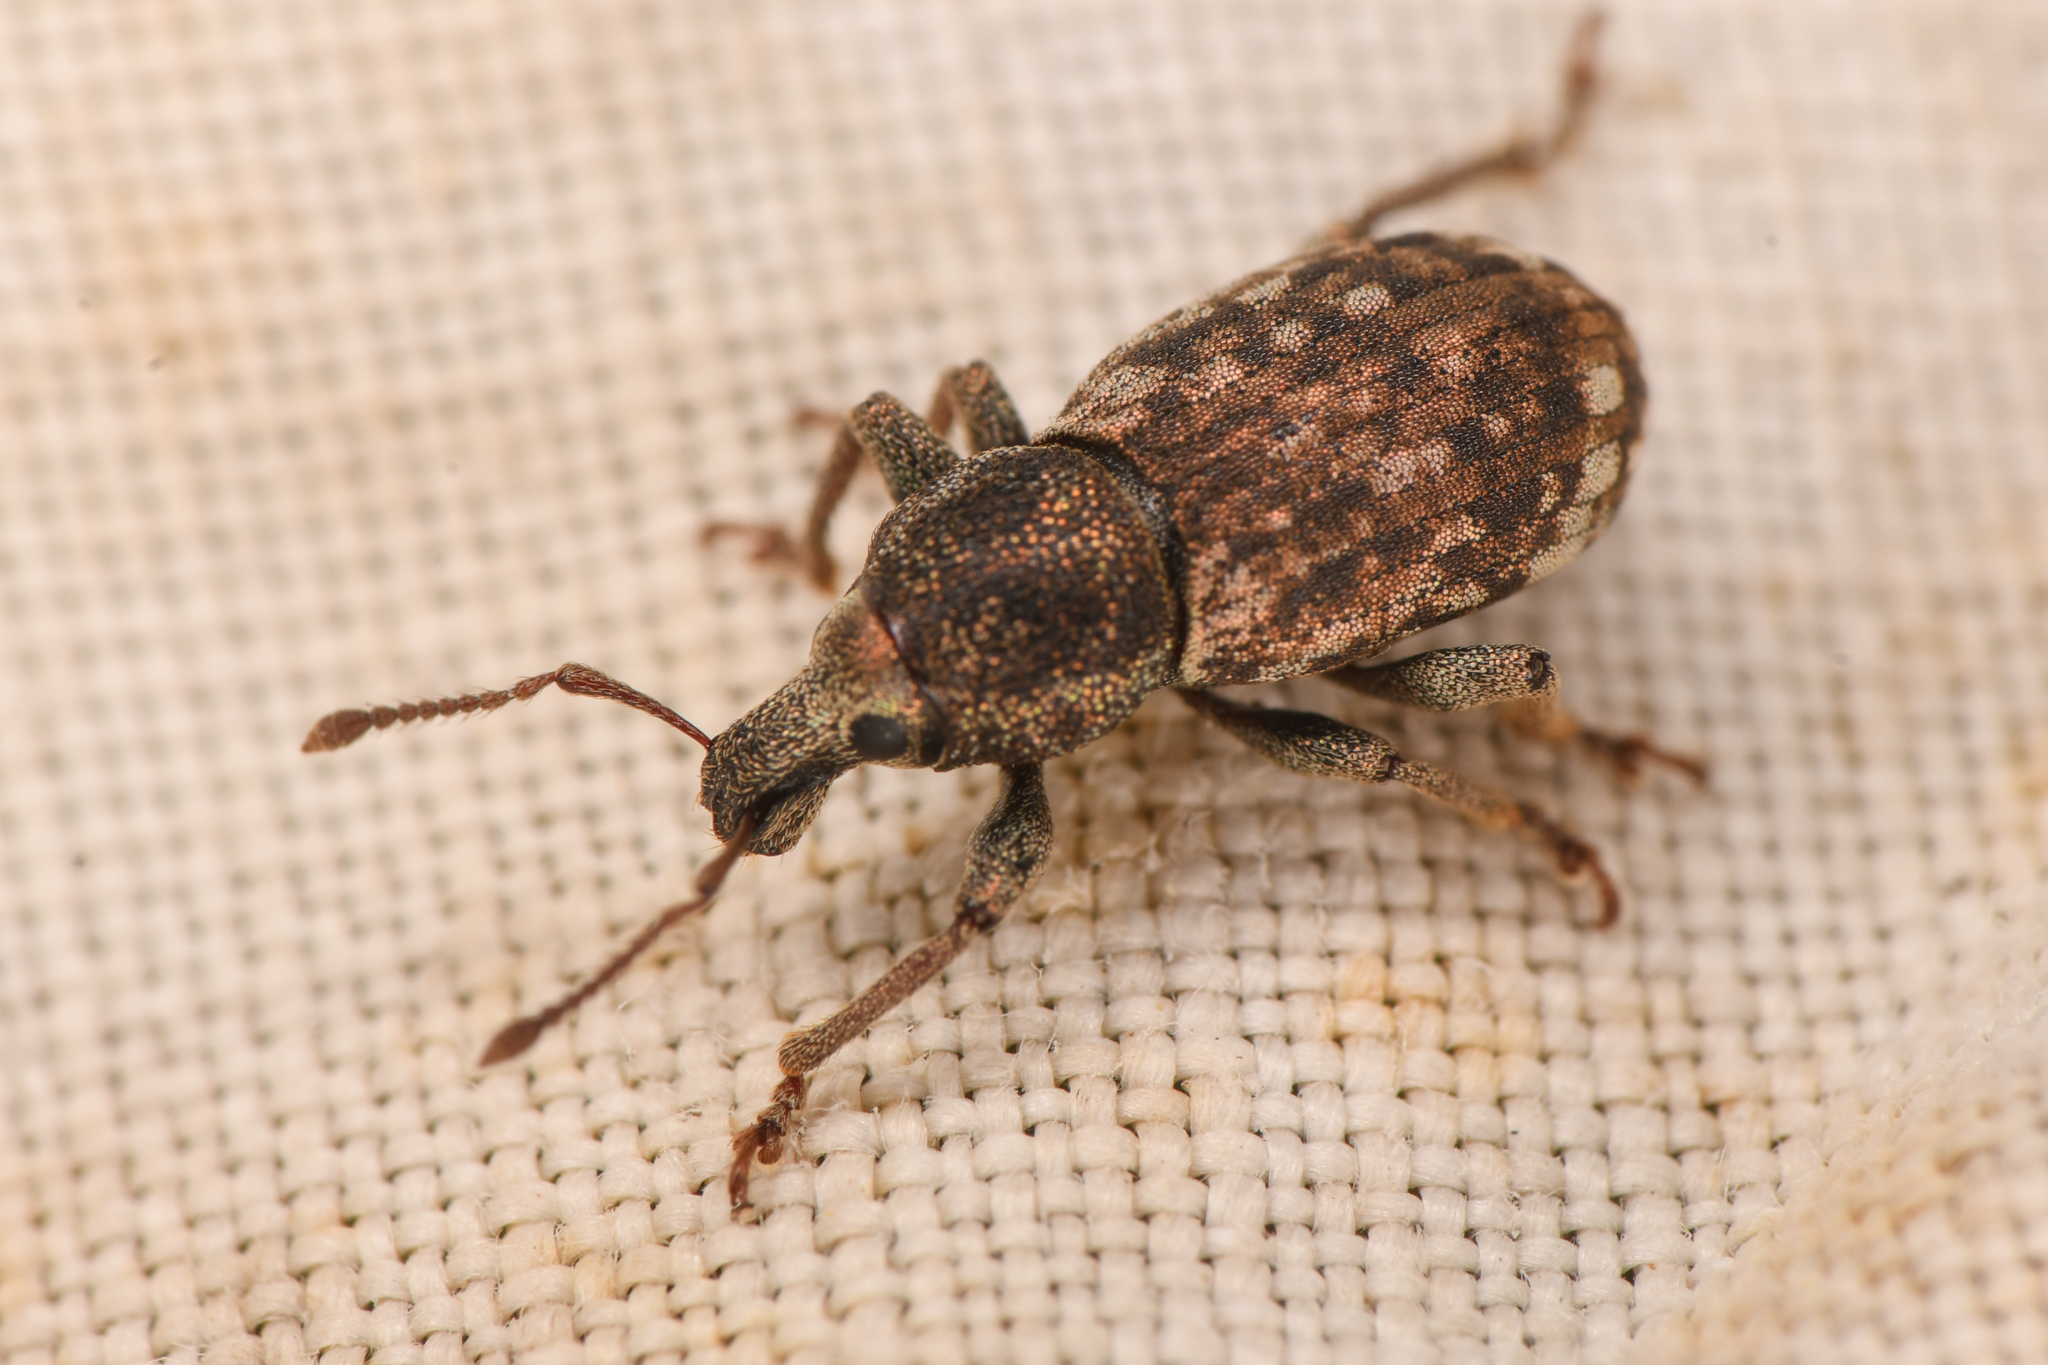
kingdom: Animalia
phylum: Arthropoda
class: Insecta
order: Coleoptera
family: Curculionidae
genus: Dyslobus
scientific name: Dyslobus bakeri
